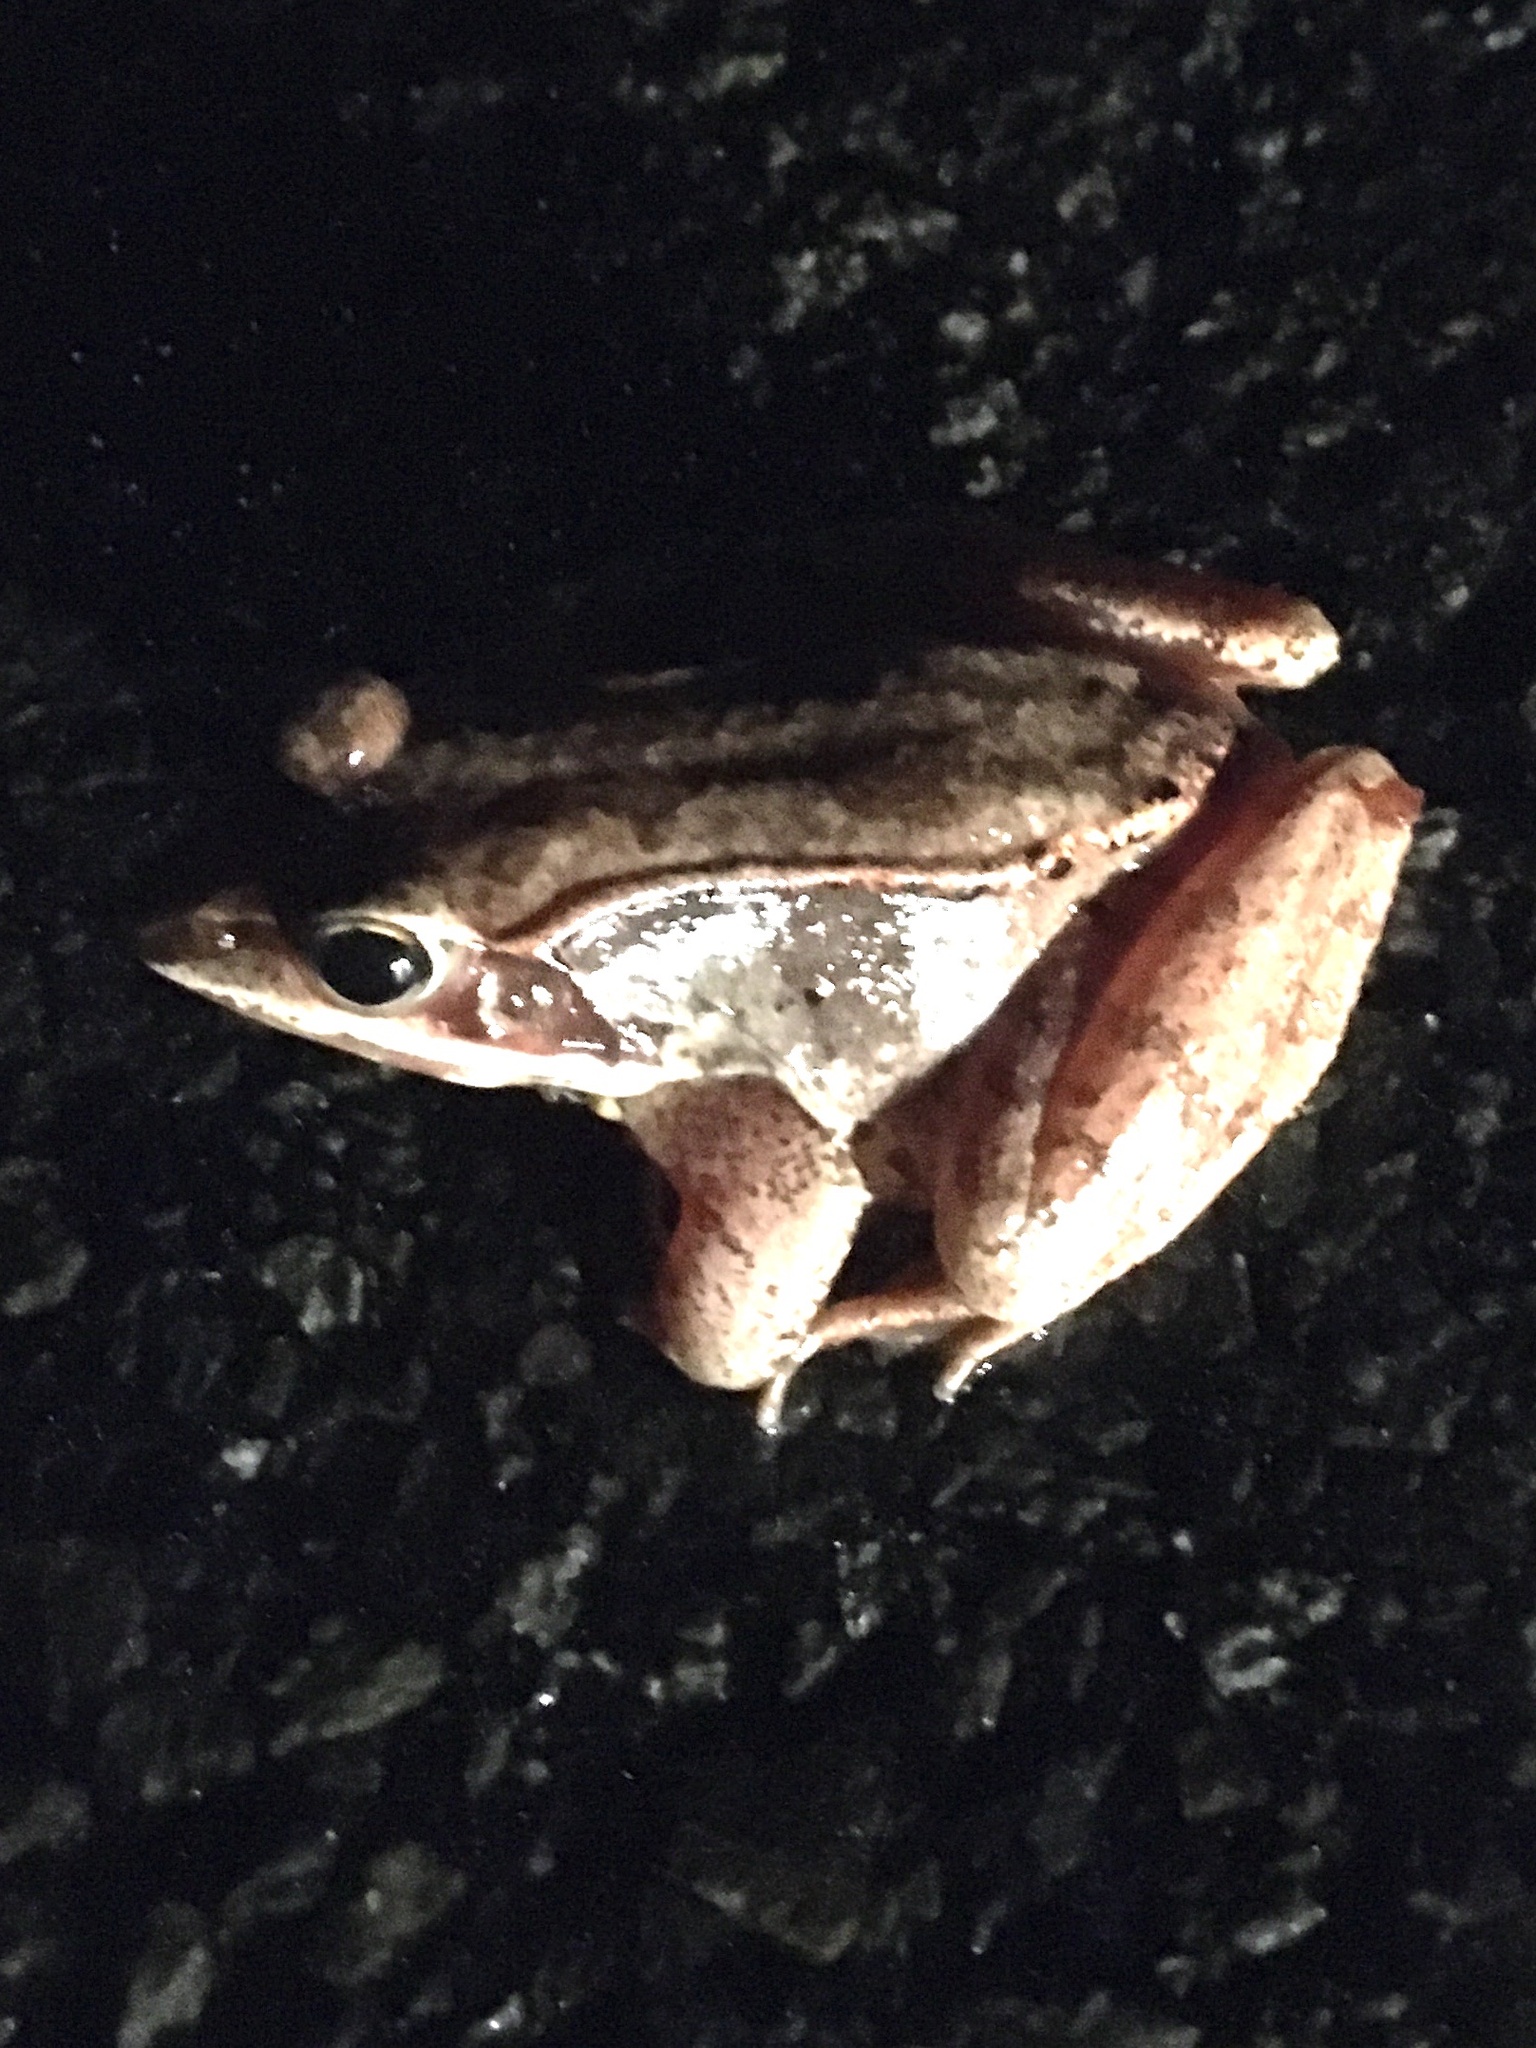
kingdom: Animalia
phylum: Chordata
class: Amphibia
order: Anura
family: Ranidae
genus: Lithobates
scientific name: Lithobates sylvaticus
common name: Wood frog
